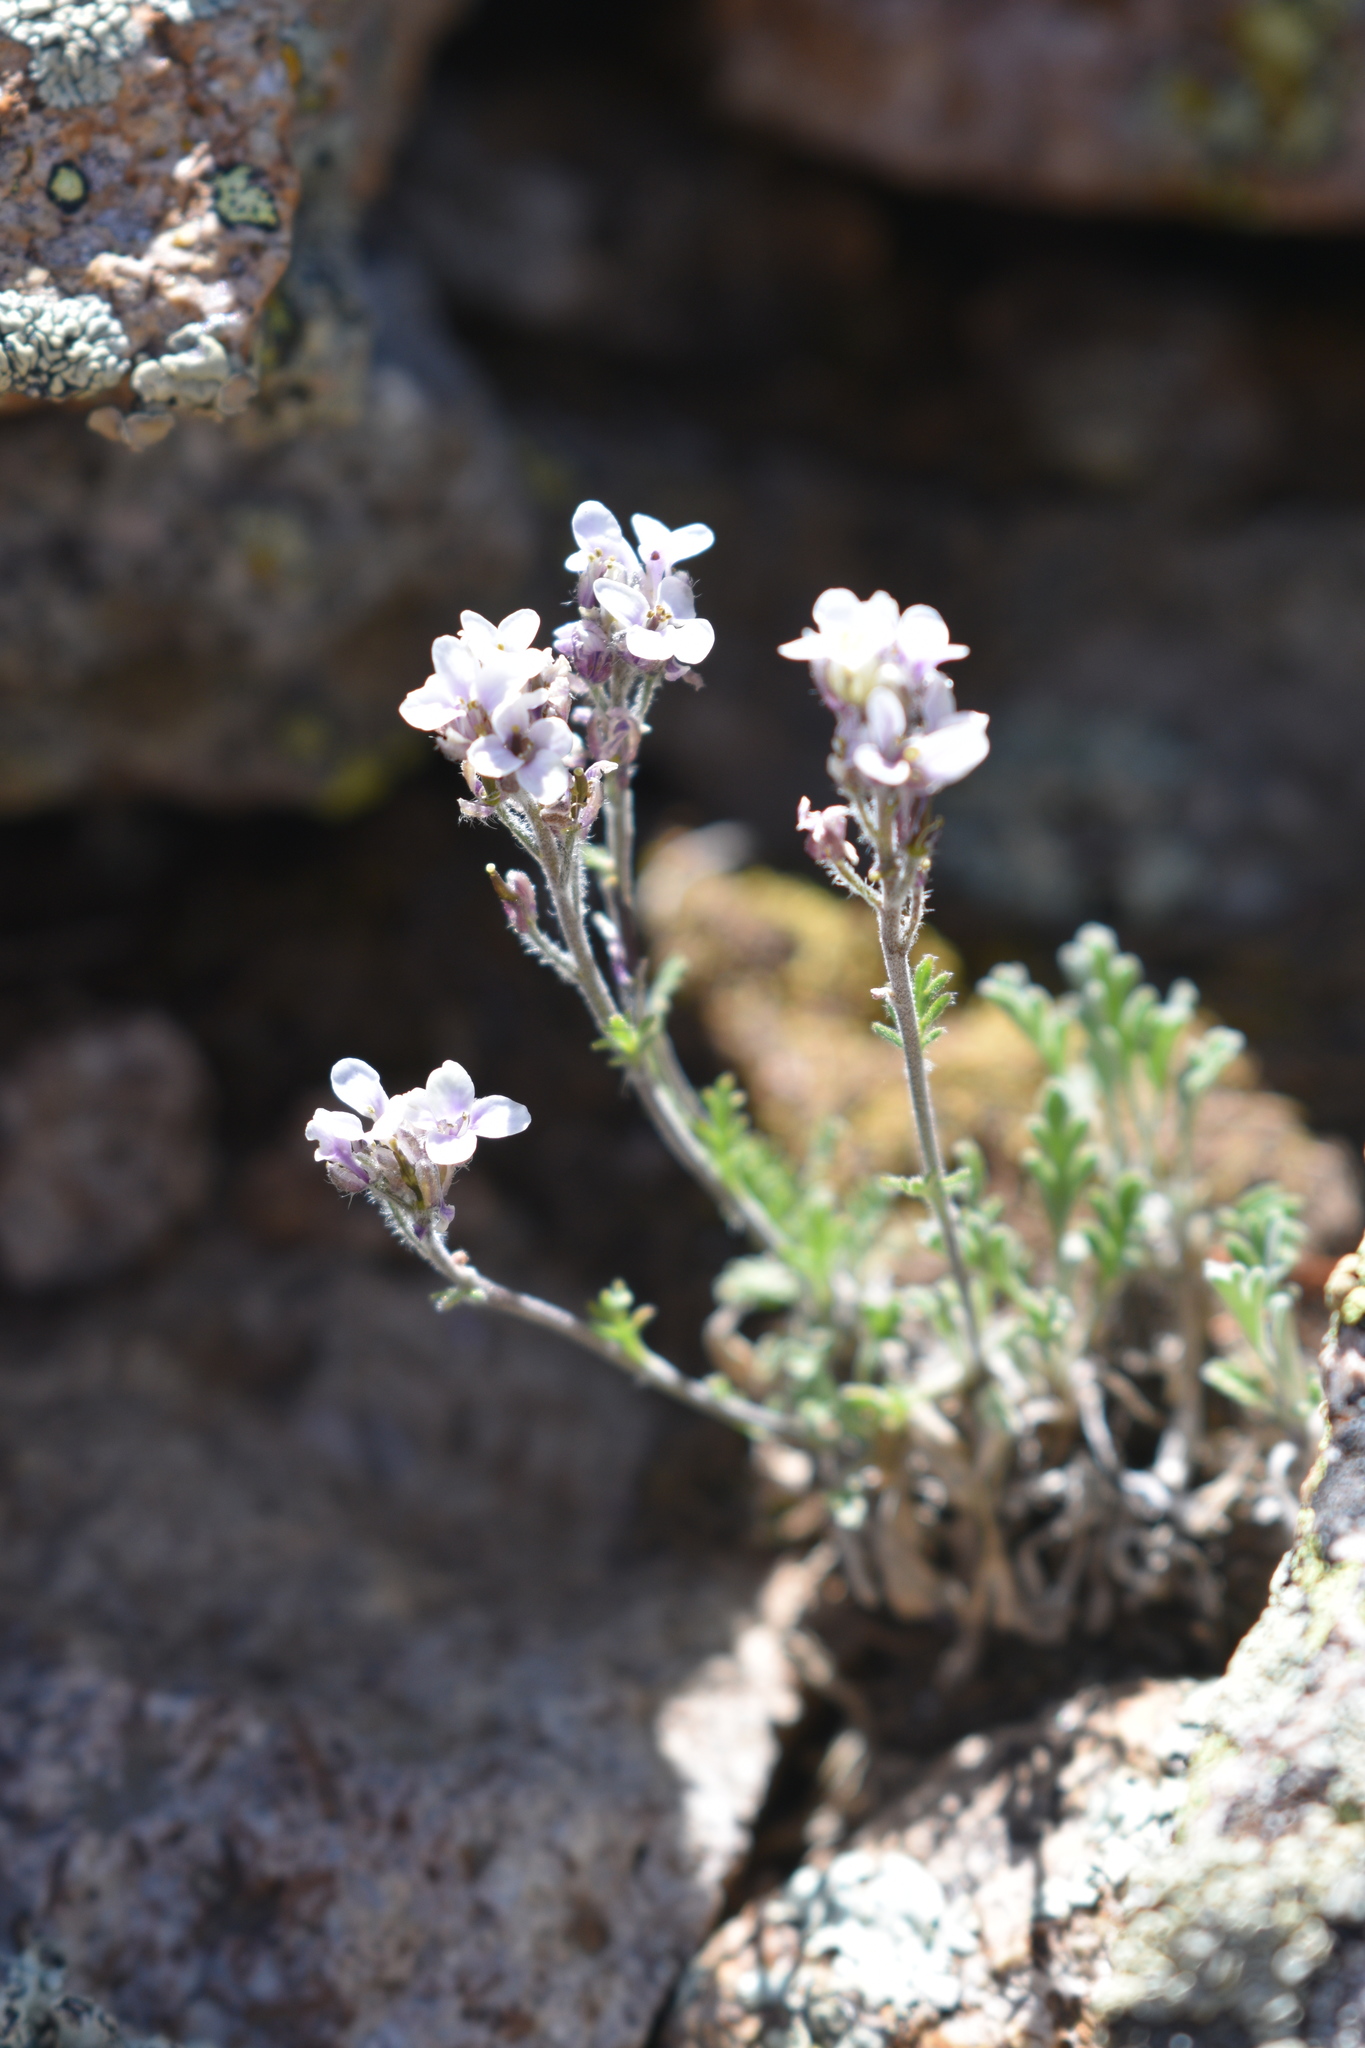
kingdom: Plantae
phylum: Tracheophyta
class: Magnoliopsida
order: Brassicales
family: Brassicaceae
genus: Smelowskia
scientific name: Smelowskia americana
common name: American false candytuft
